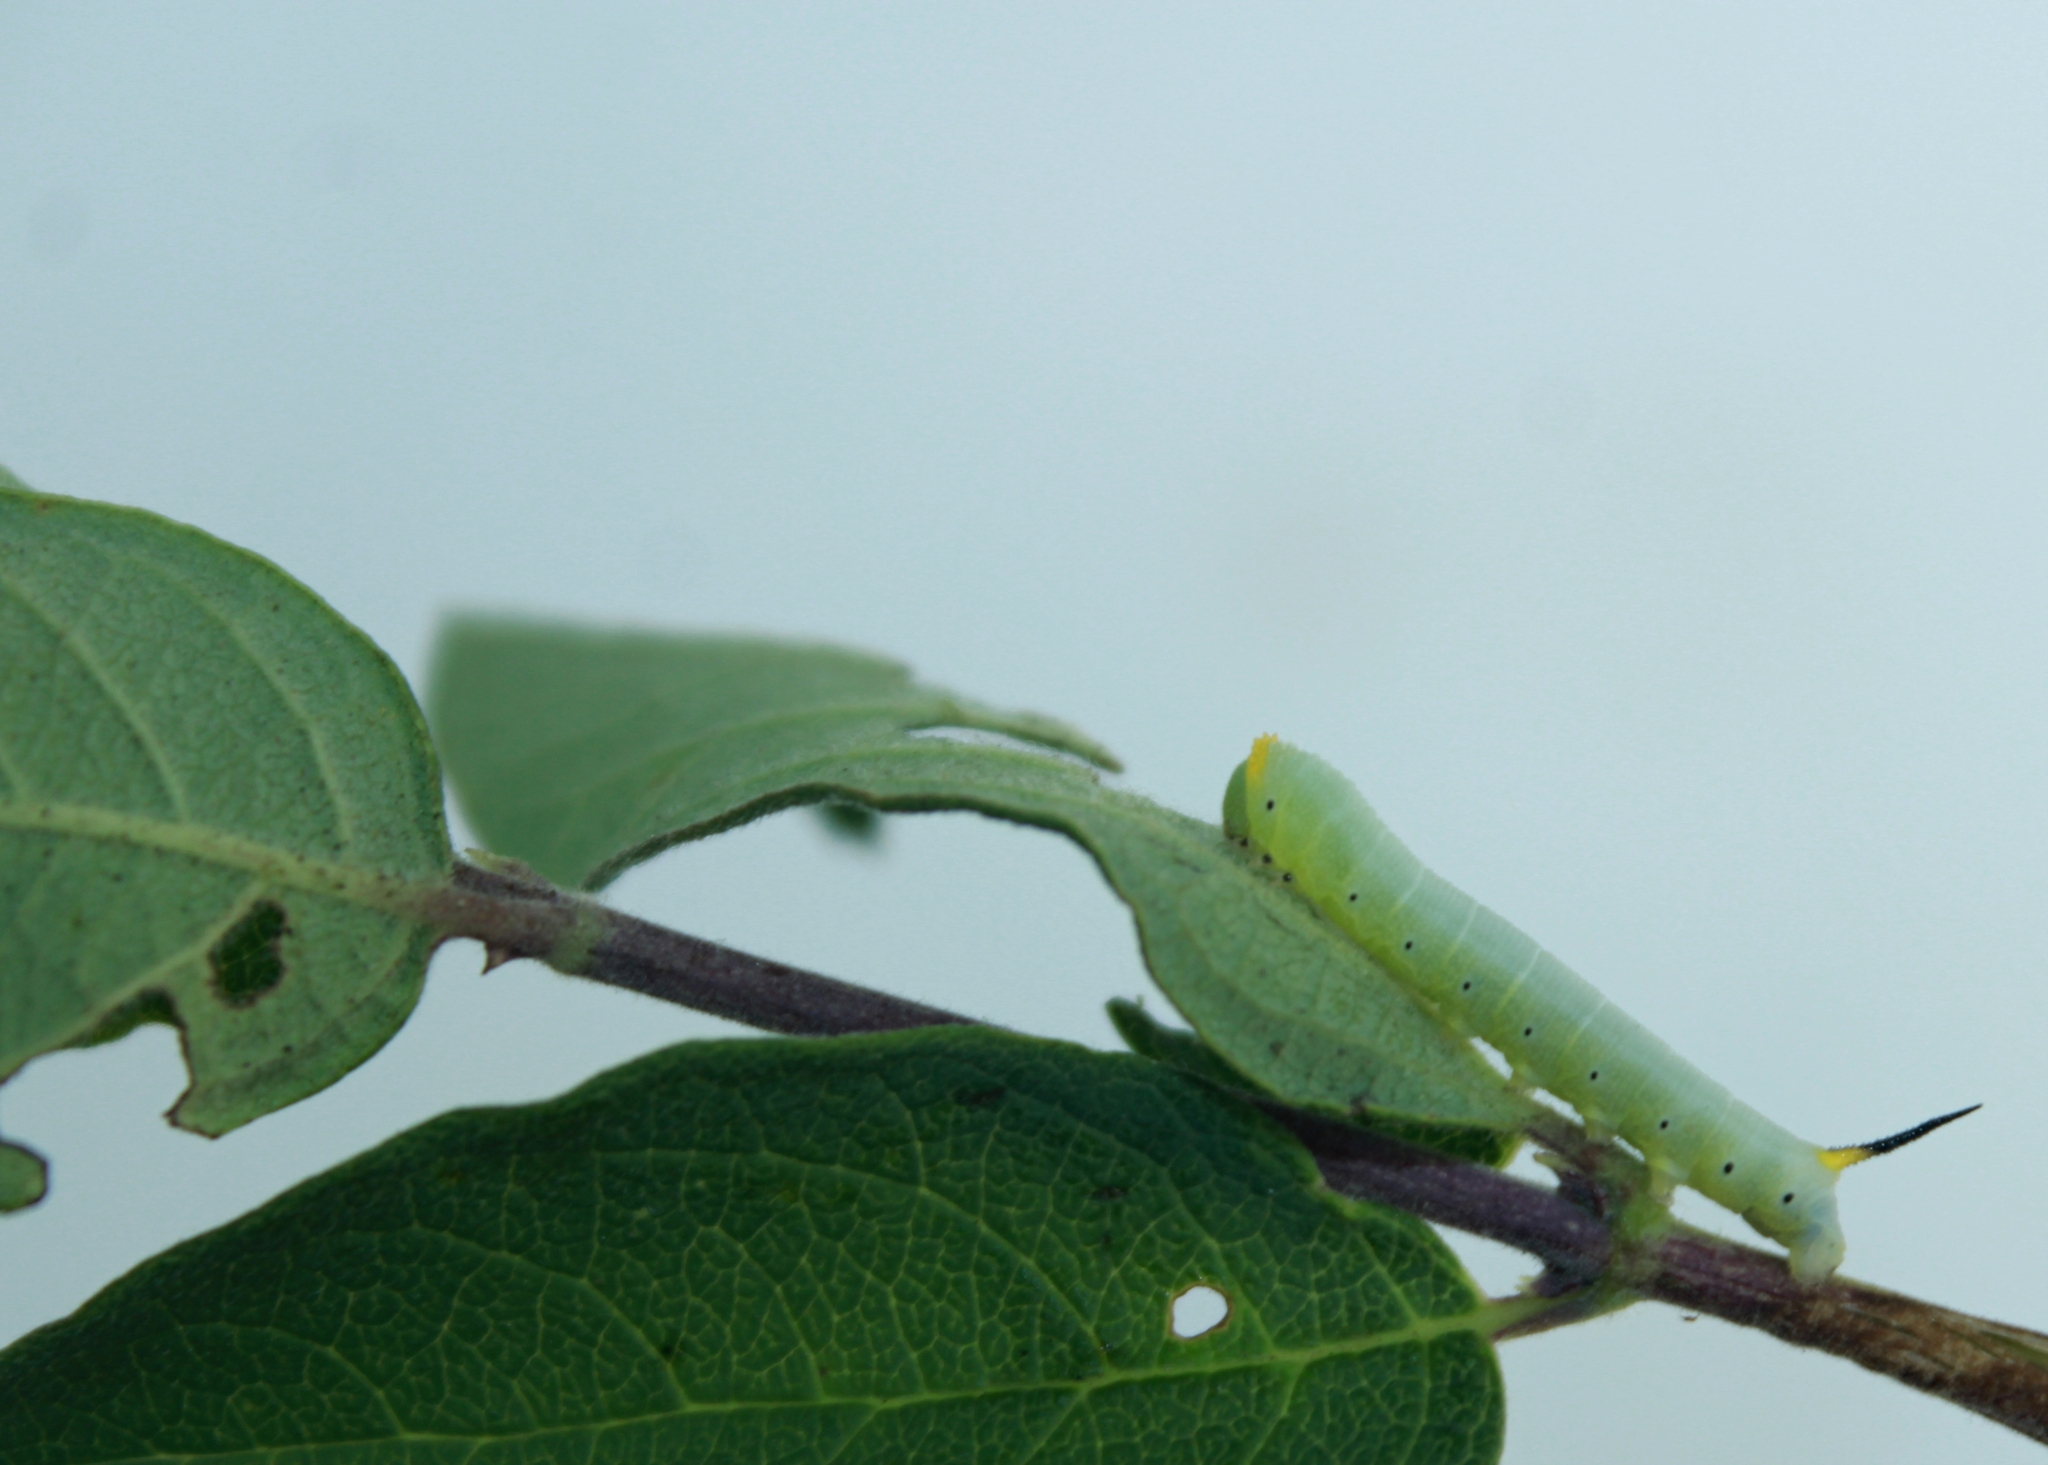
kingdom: Animalia
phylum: Arthropoda
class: Insecta
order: Lepidoptera
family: Sphingidae
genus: Hemaris
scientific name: Hemaris diffinis
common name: Bumblebee moth
